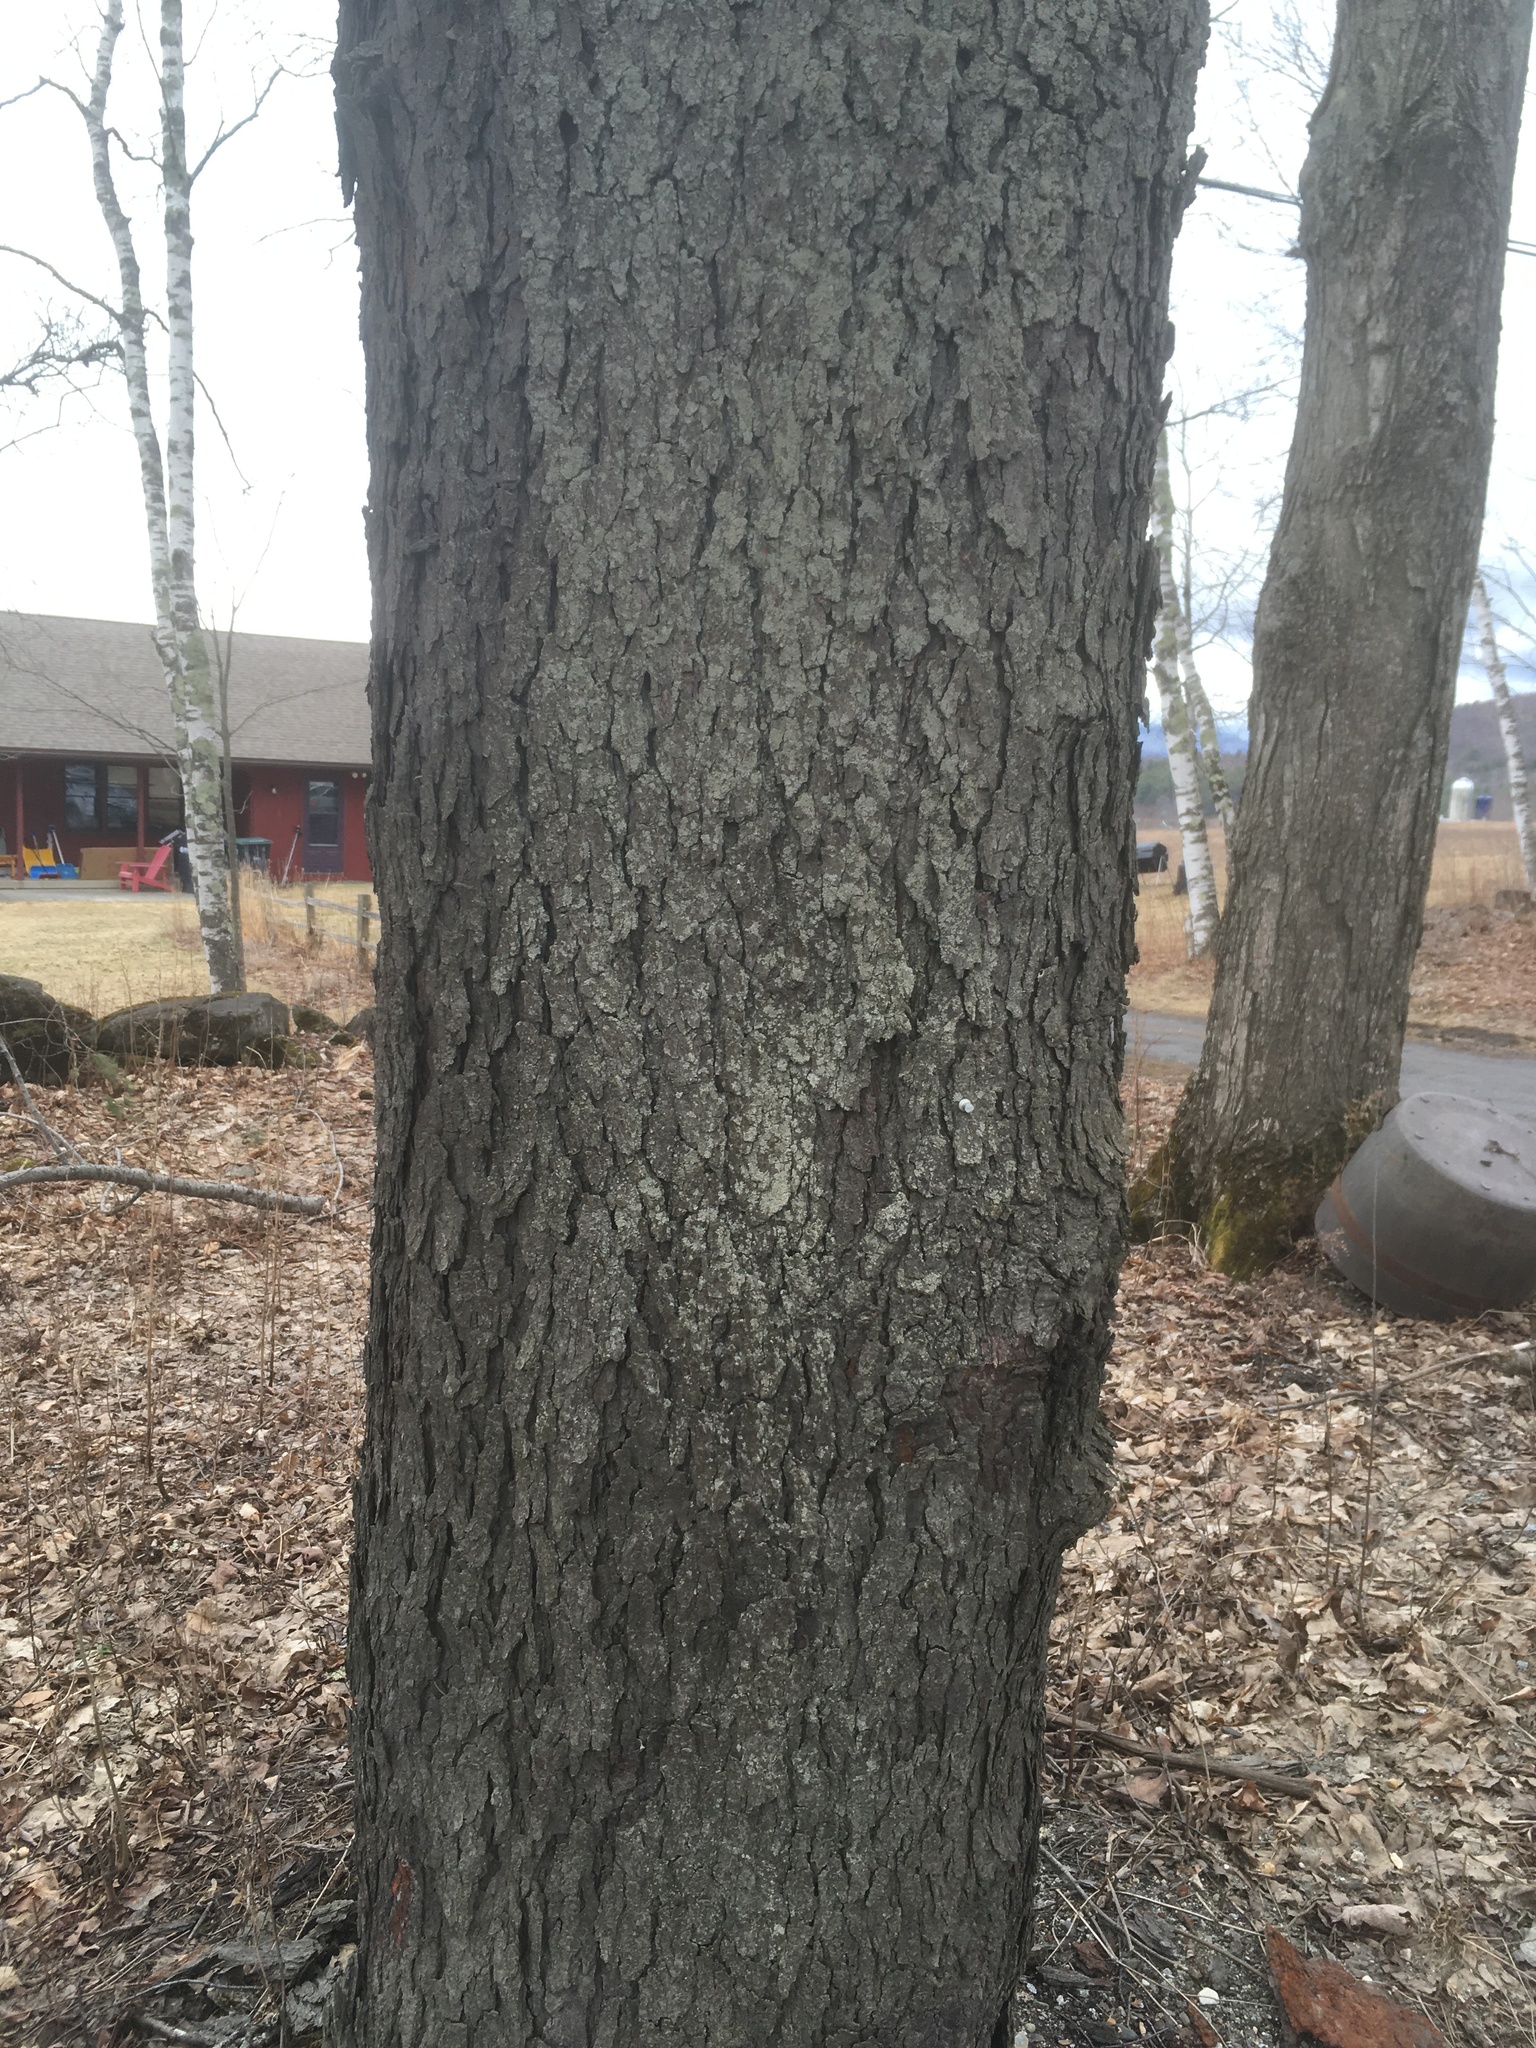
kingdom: Plantae
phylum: Tracheophyta
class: Magnoliopsida
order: Rosales
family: Rosaceae
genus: Prunus
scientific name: Prunus serotina
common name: Black cherry
